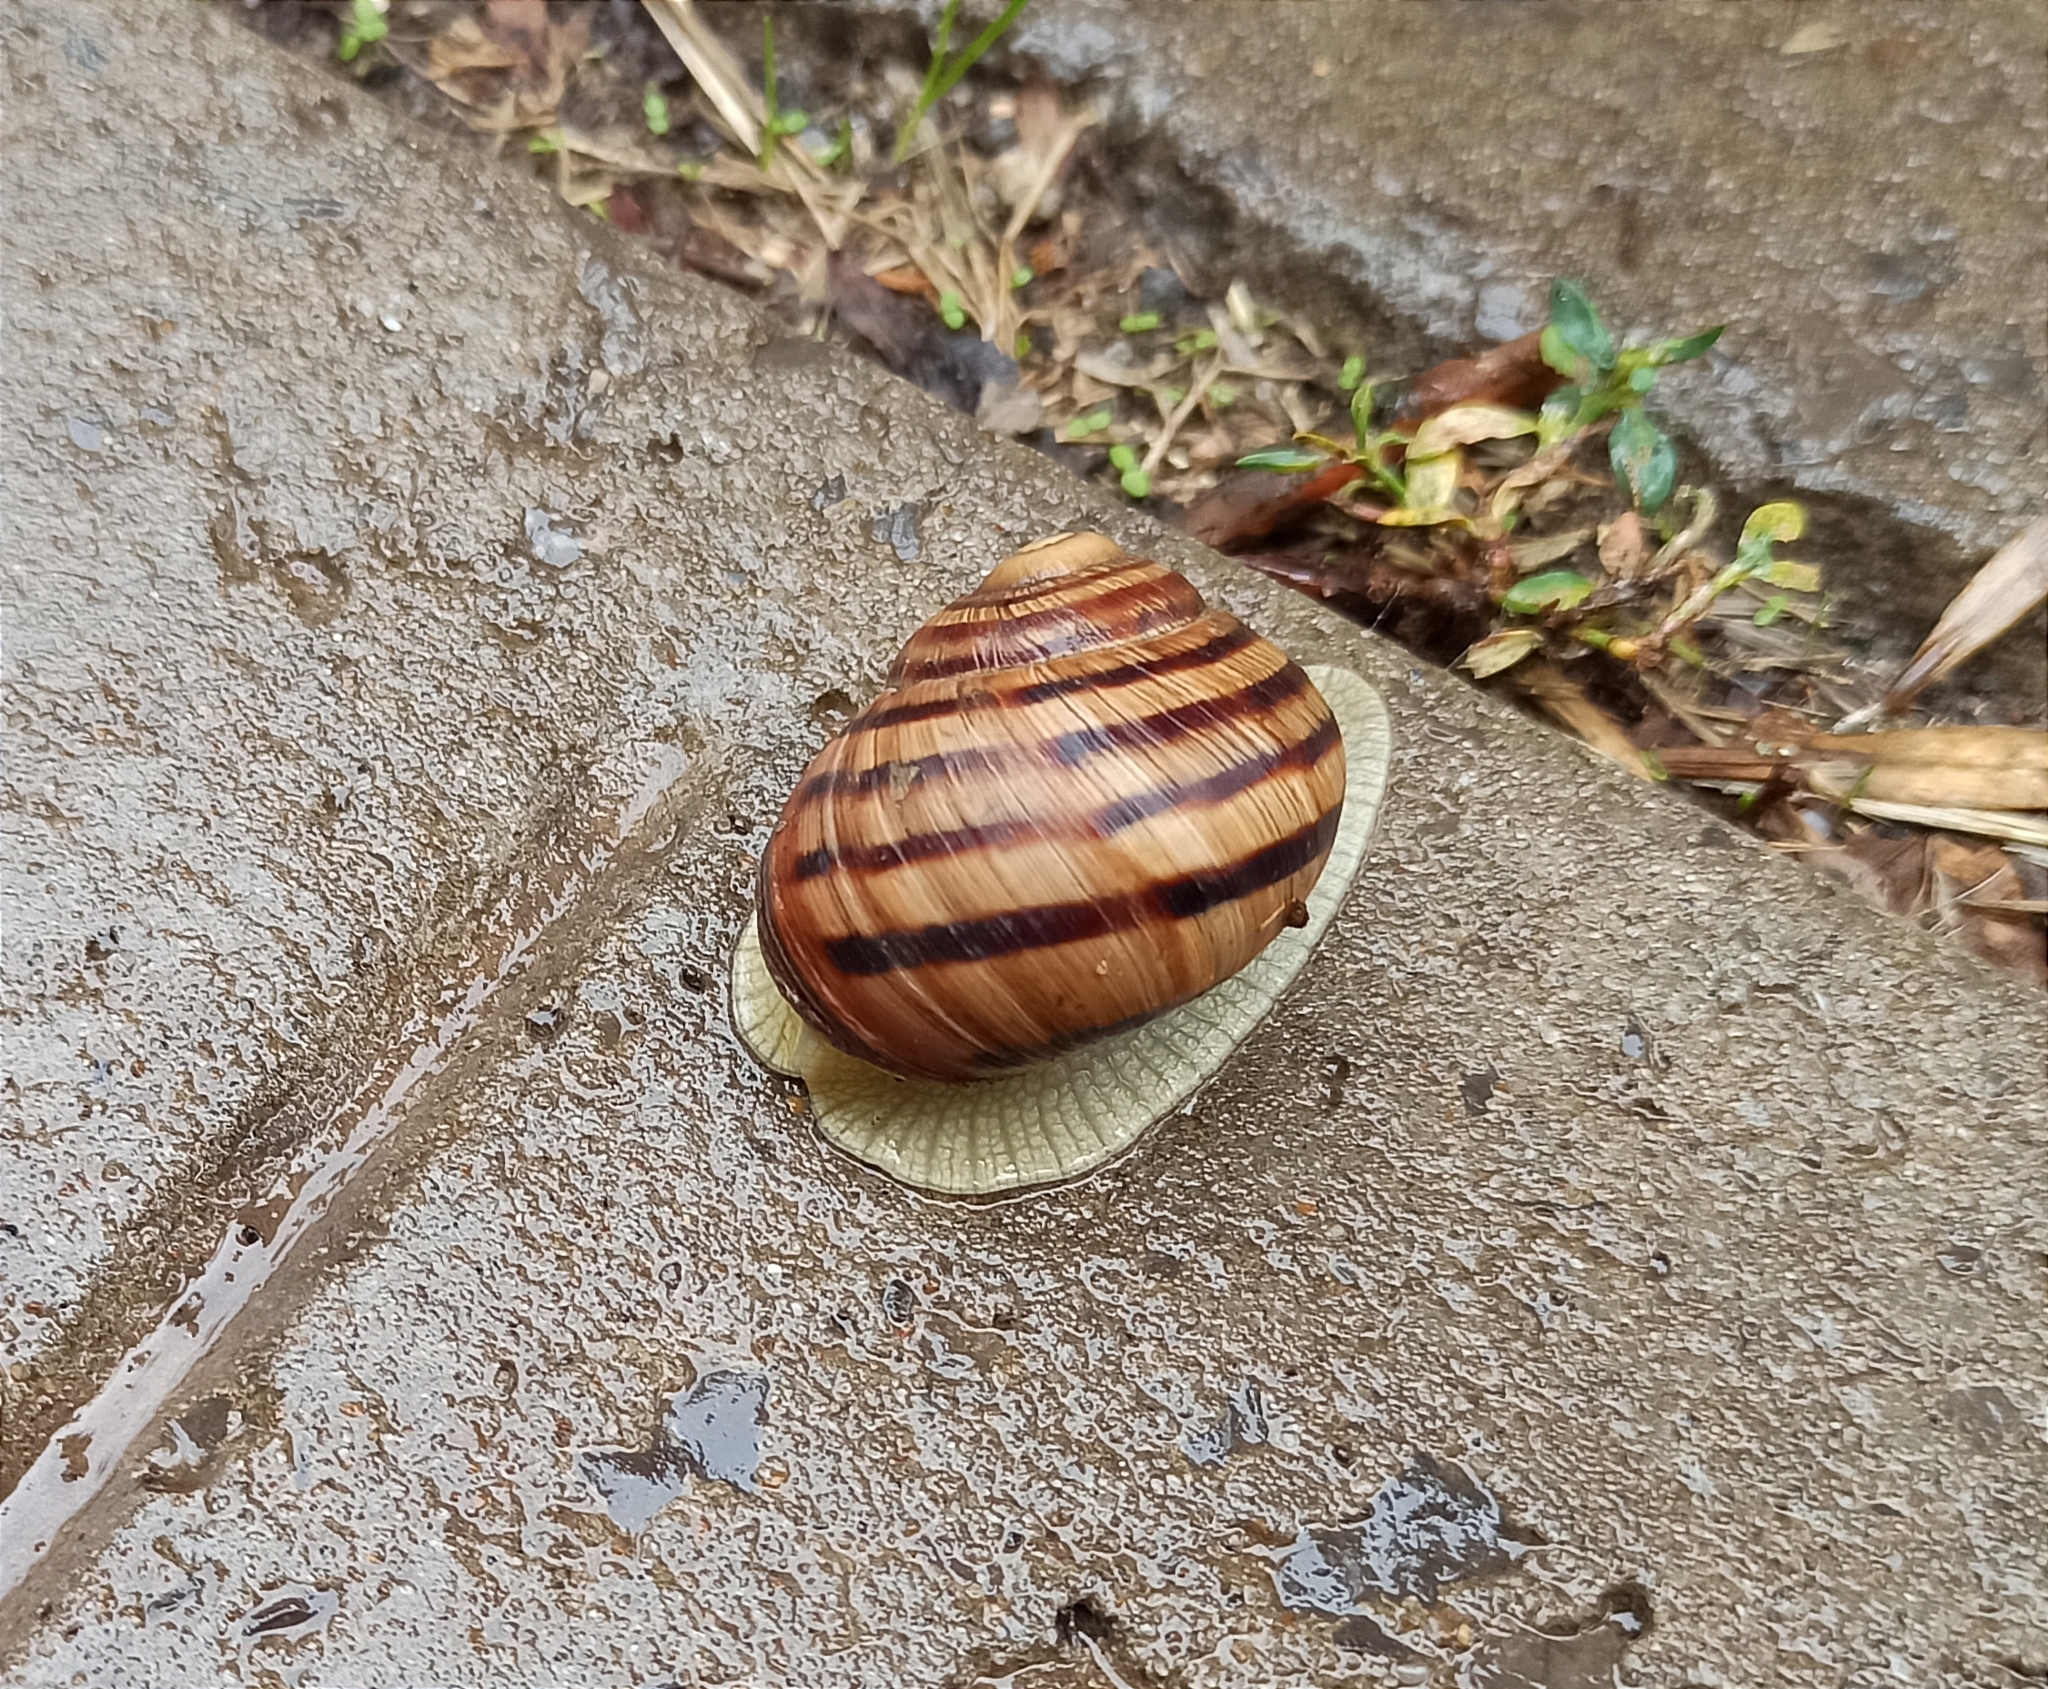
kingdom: Animalia
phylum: Mollusca
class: Gastropoda
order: Stylommatophora
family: Helicidae
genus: Helix
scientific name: Helix albescens
